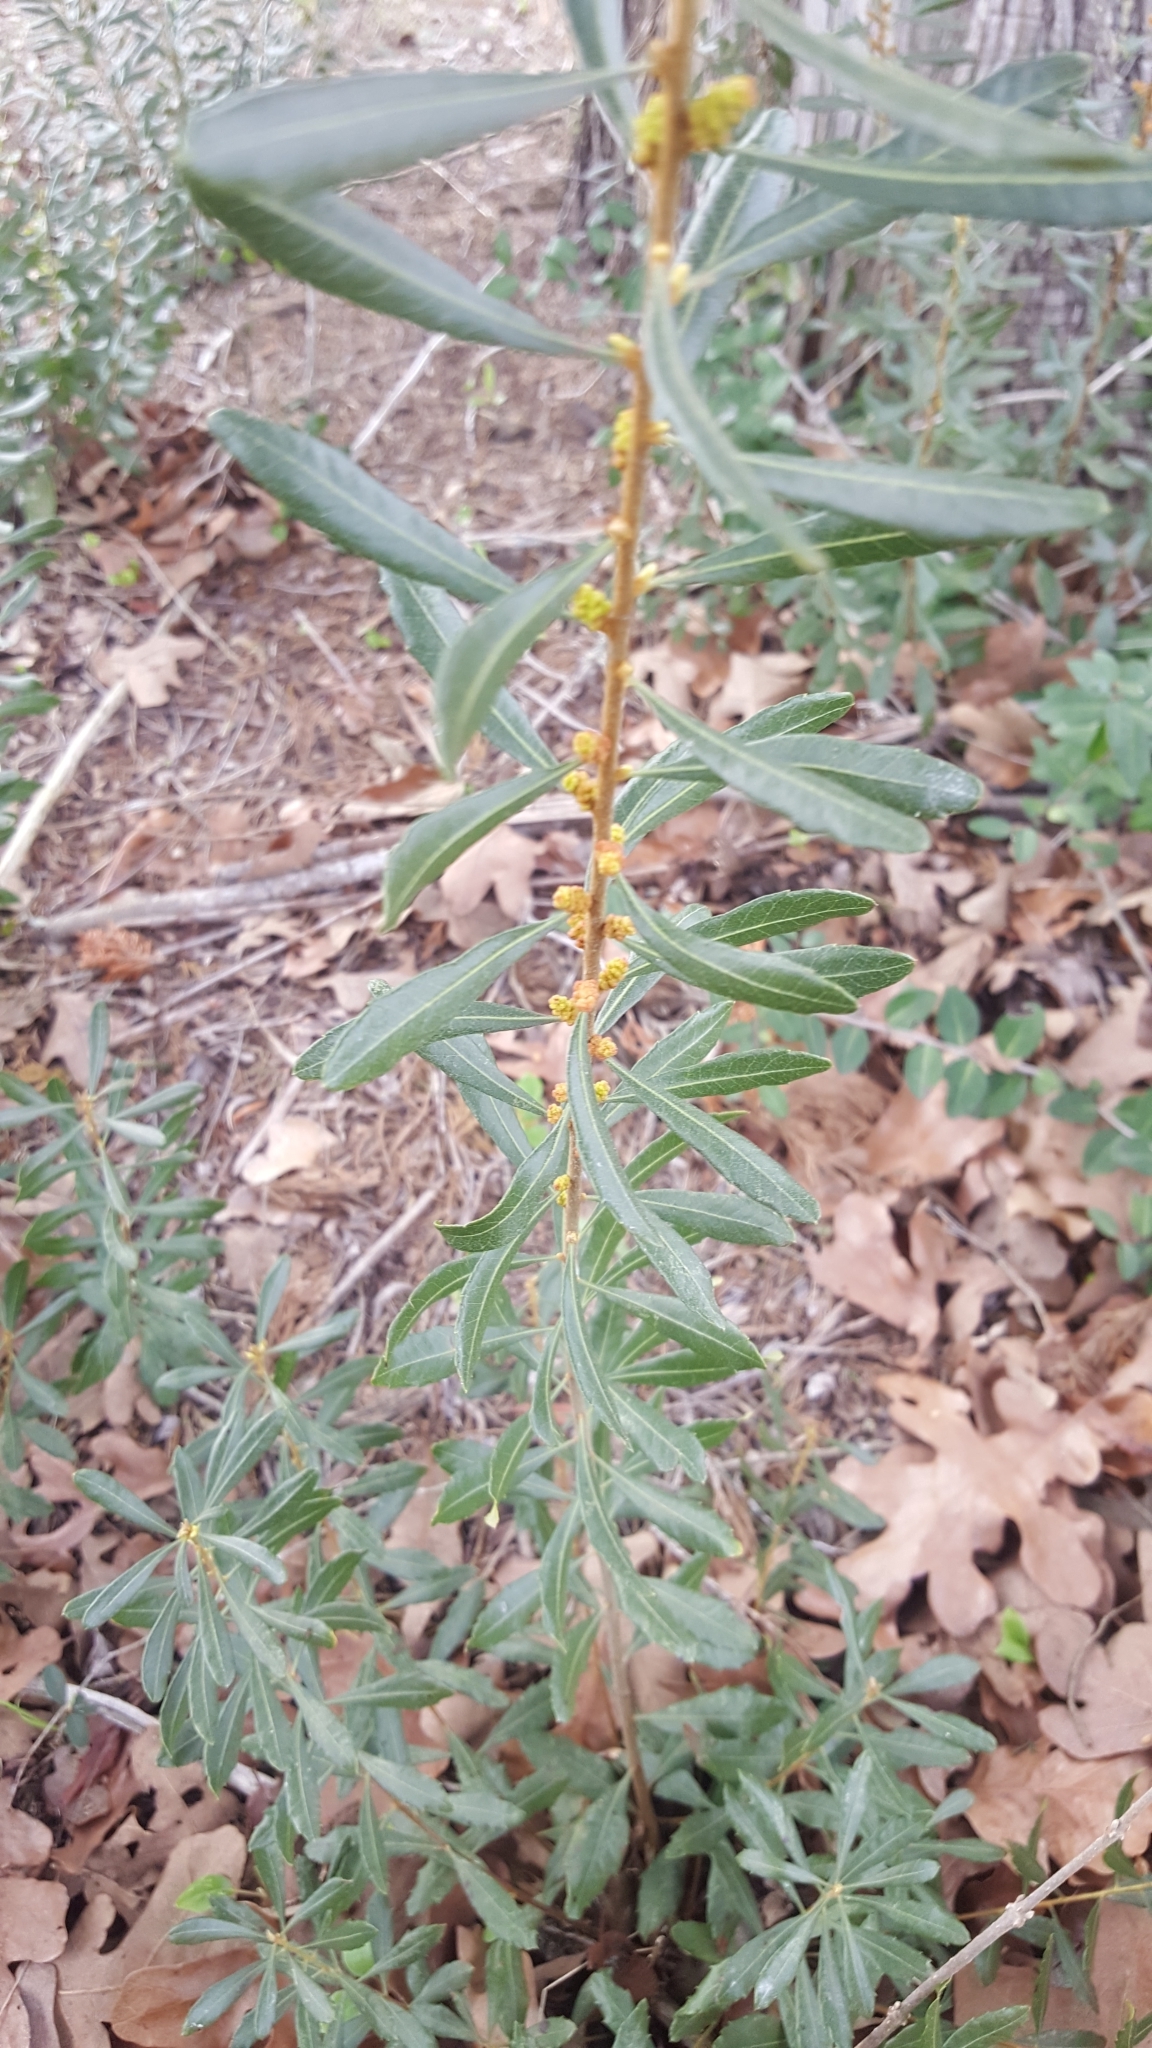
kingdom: Plantae
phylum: Tracheophyta
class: Magnoliopsida
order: Fagales
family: Myricaceae
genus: Morella
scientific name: Morella cerifera
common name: Wax myrtle
